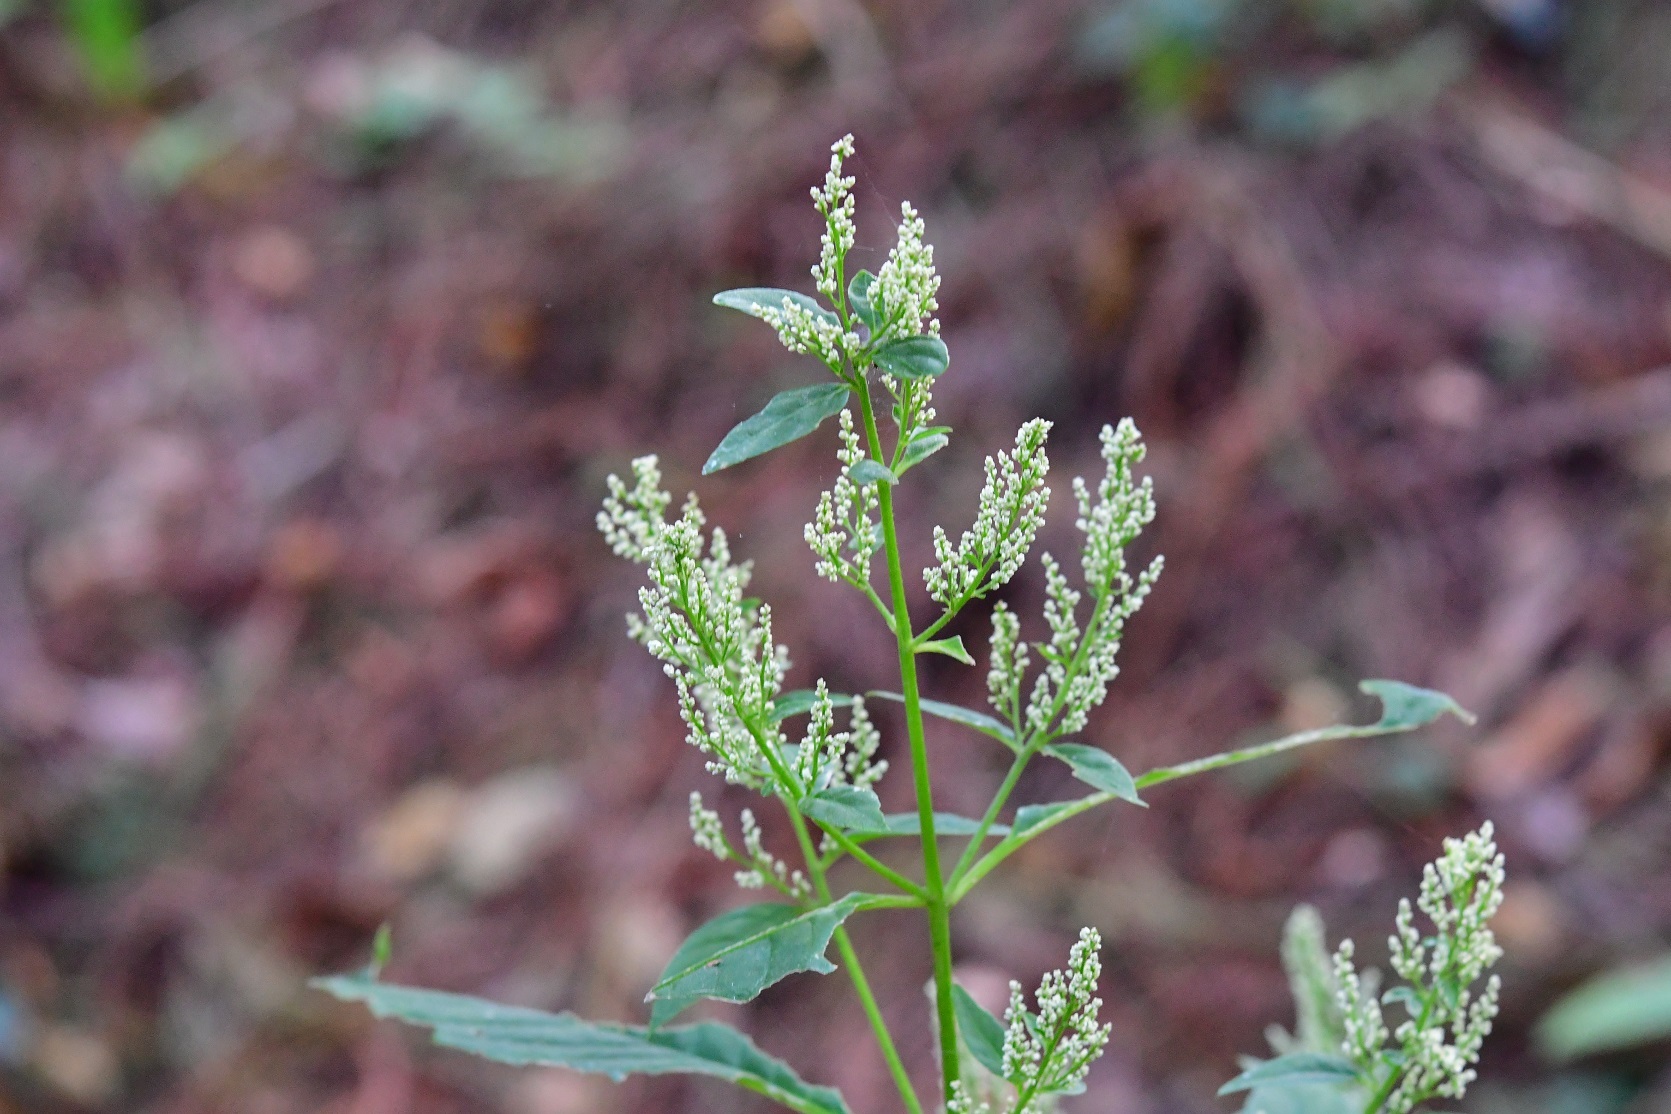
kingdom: Plantae
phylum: Tracheophyta
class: Magnoliopsida
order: Caryophyllales
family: Amaranthaceae
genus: Iresine
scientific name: Iresine diffusa
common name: Juba's-bush
